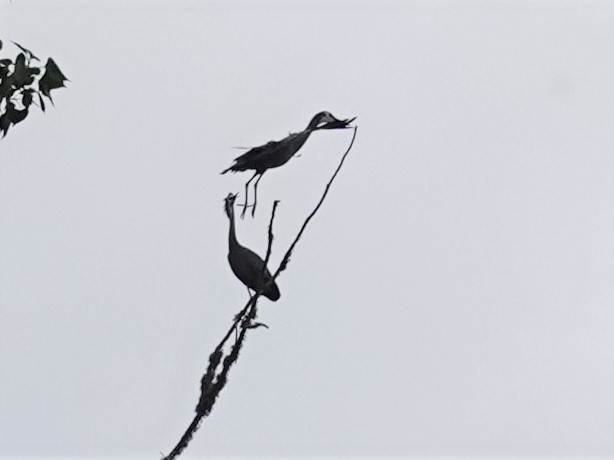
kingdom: Animalia
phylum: Chordata
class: Aves
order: Pelecaniformes
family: Ardeidae
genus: Egretta
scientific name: Egretta novaehollandiae
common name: White-faced heron
